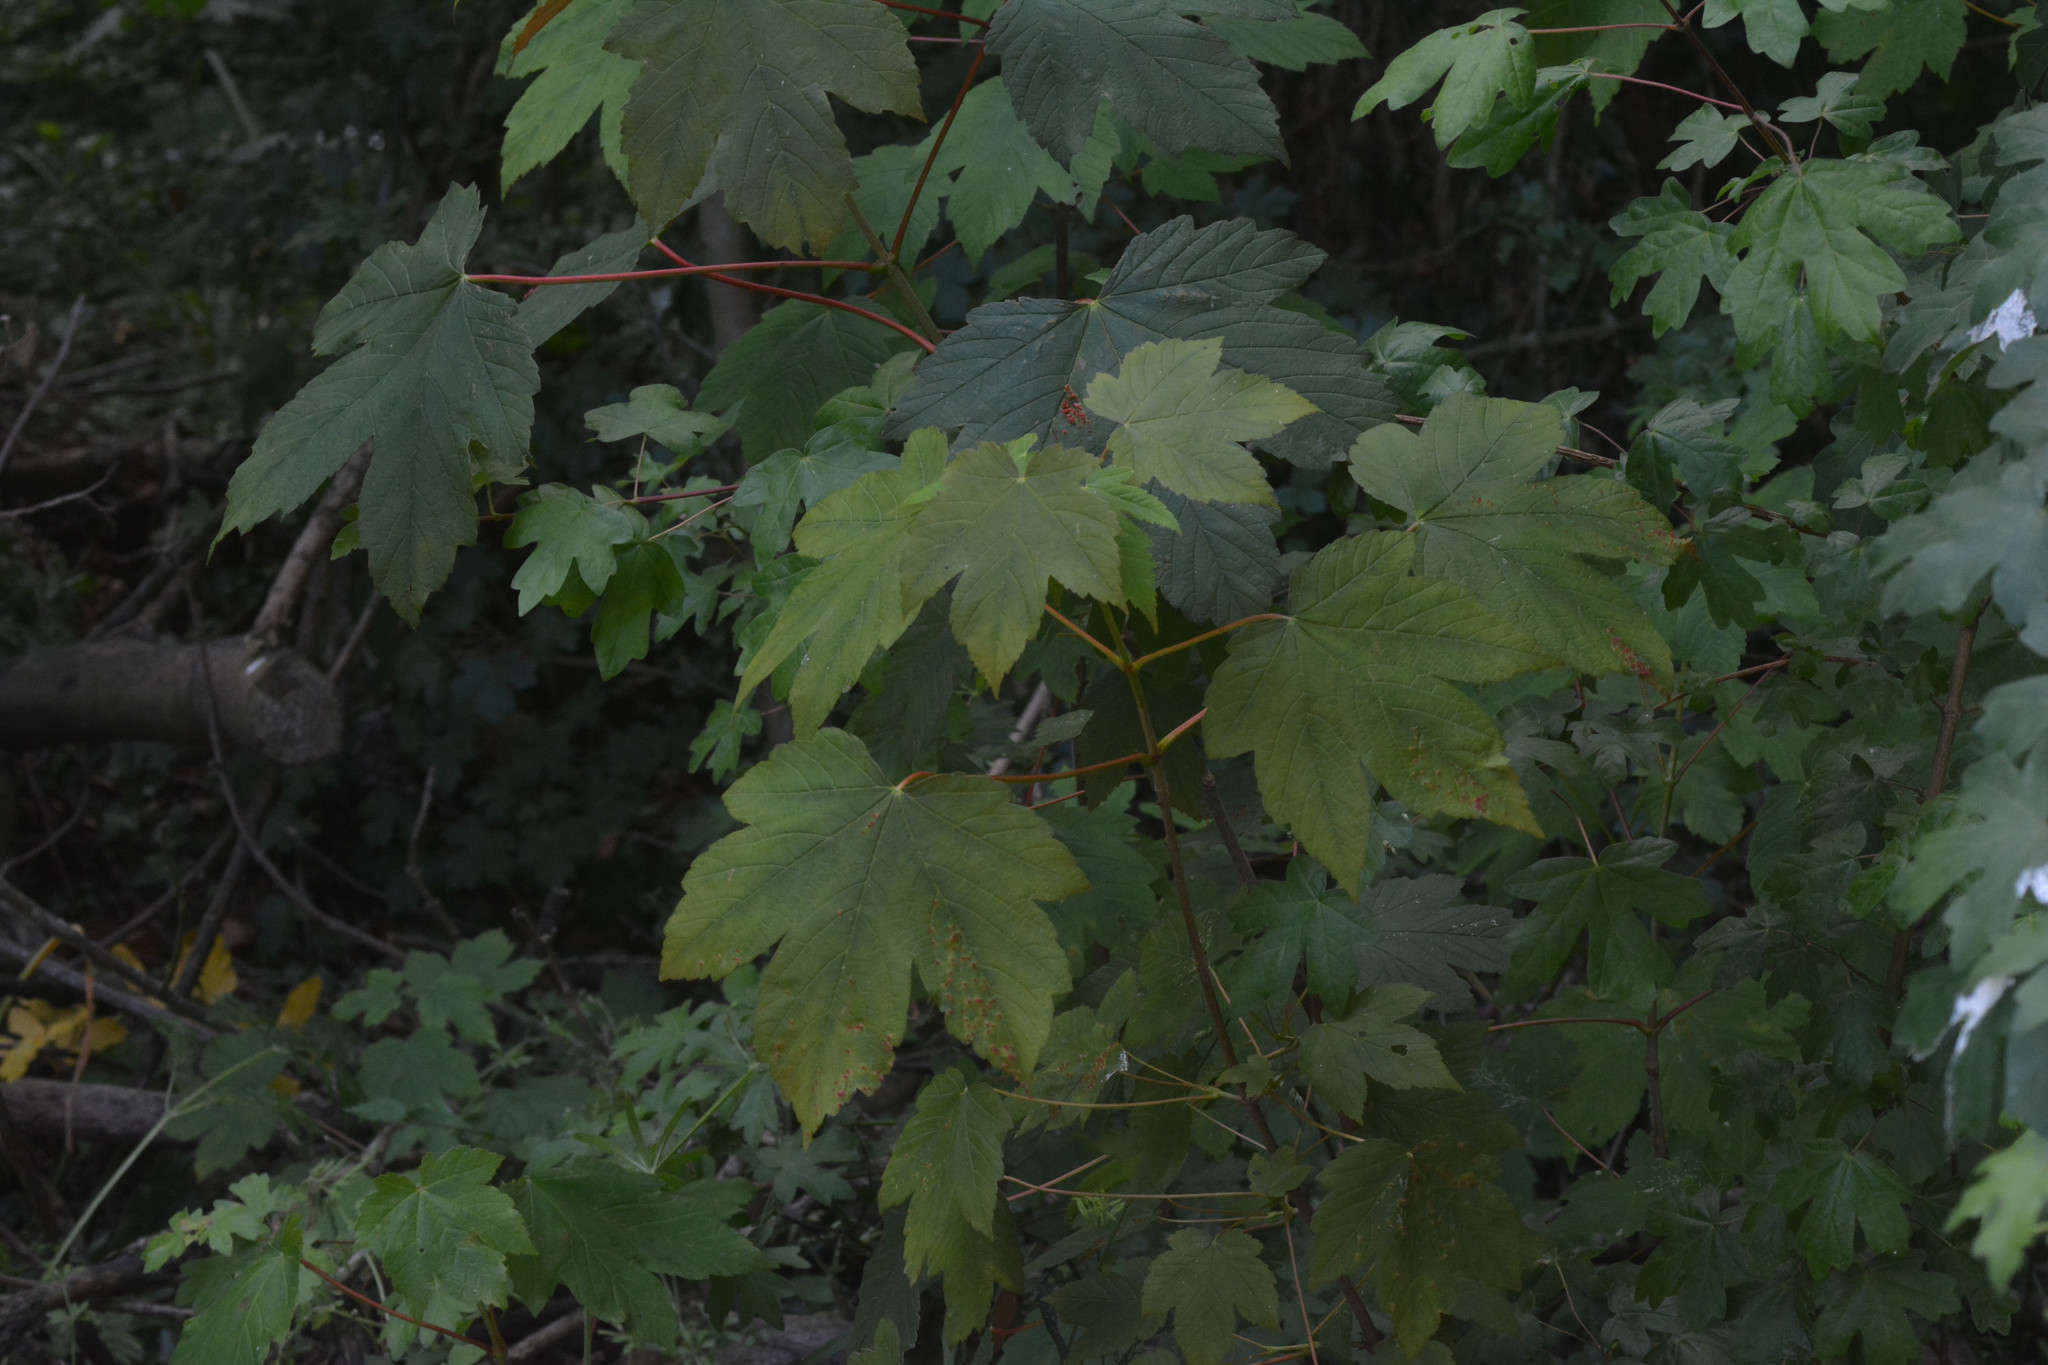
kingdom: Plantae
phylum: Tracheophyta
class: Magnoliopsida
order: Sapindales
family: Sapindaceae
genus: Acer
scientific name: Acer pseudoplatanus
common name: Sycamore
